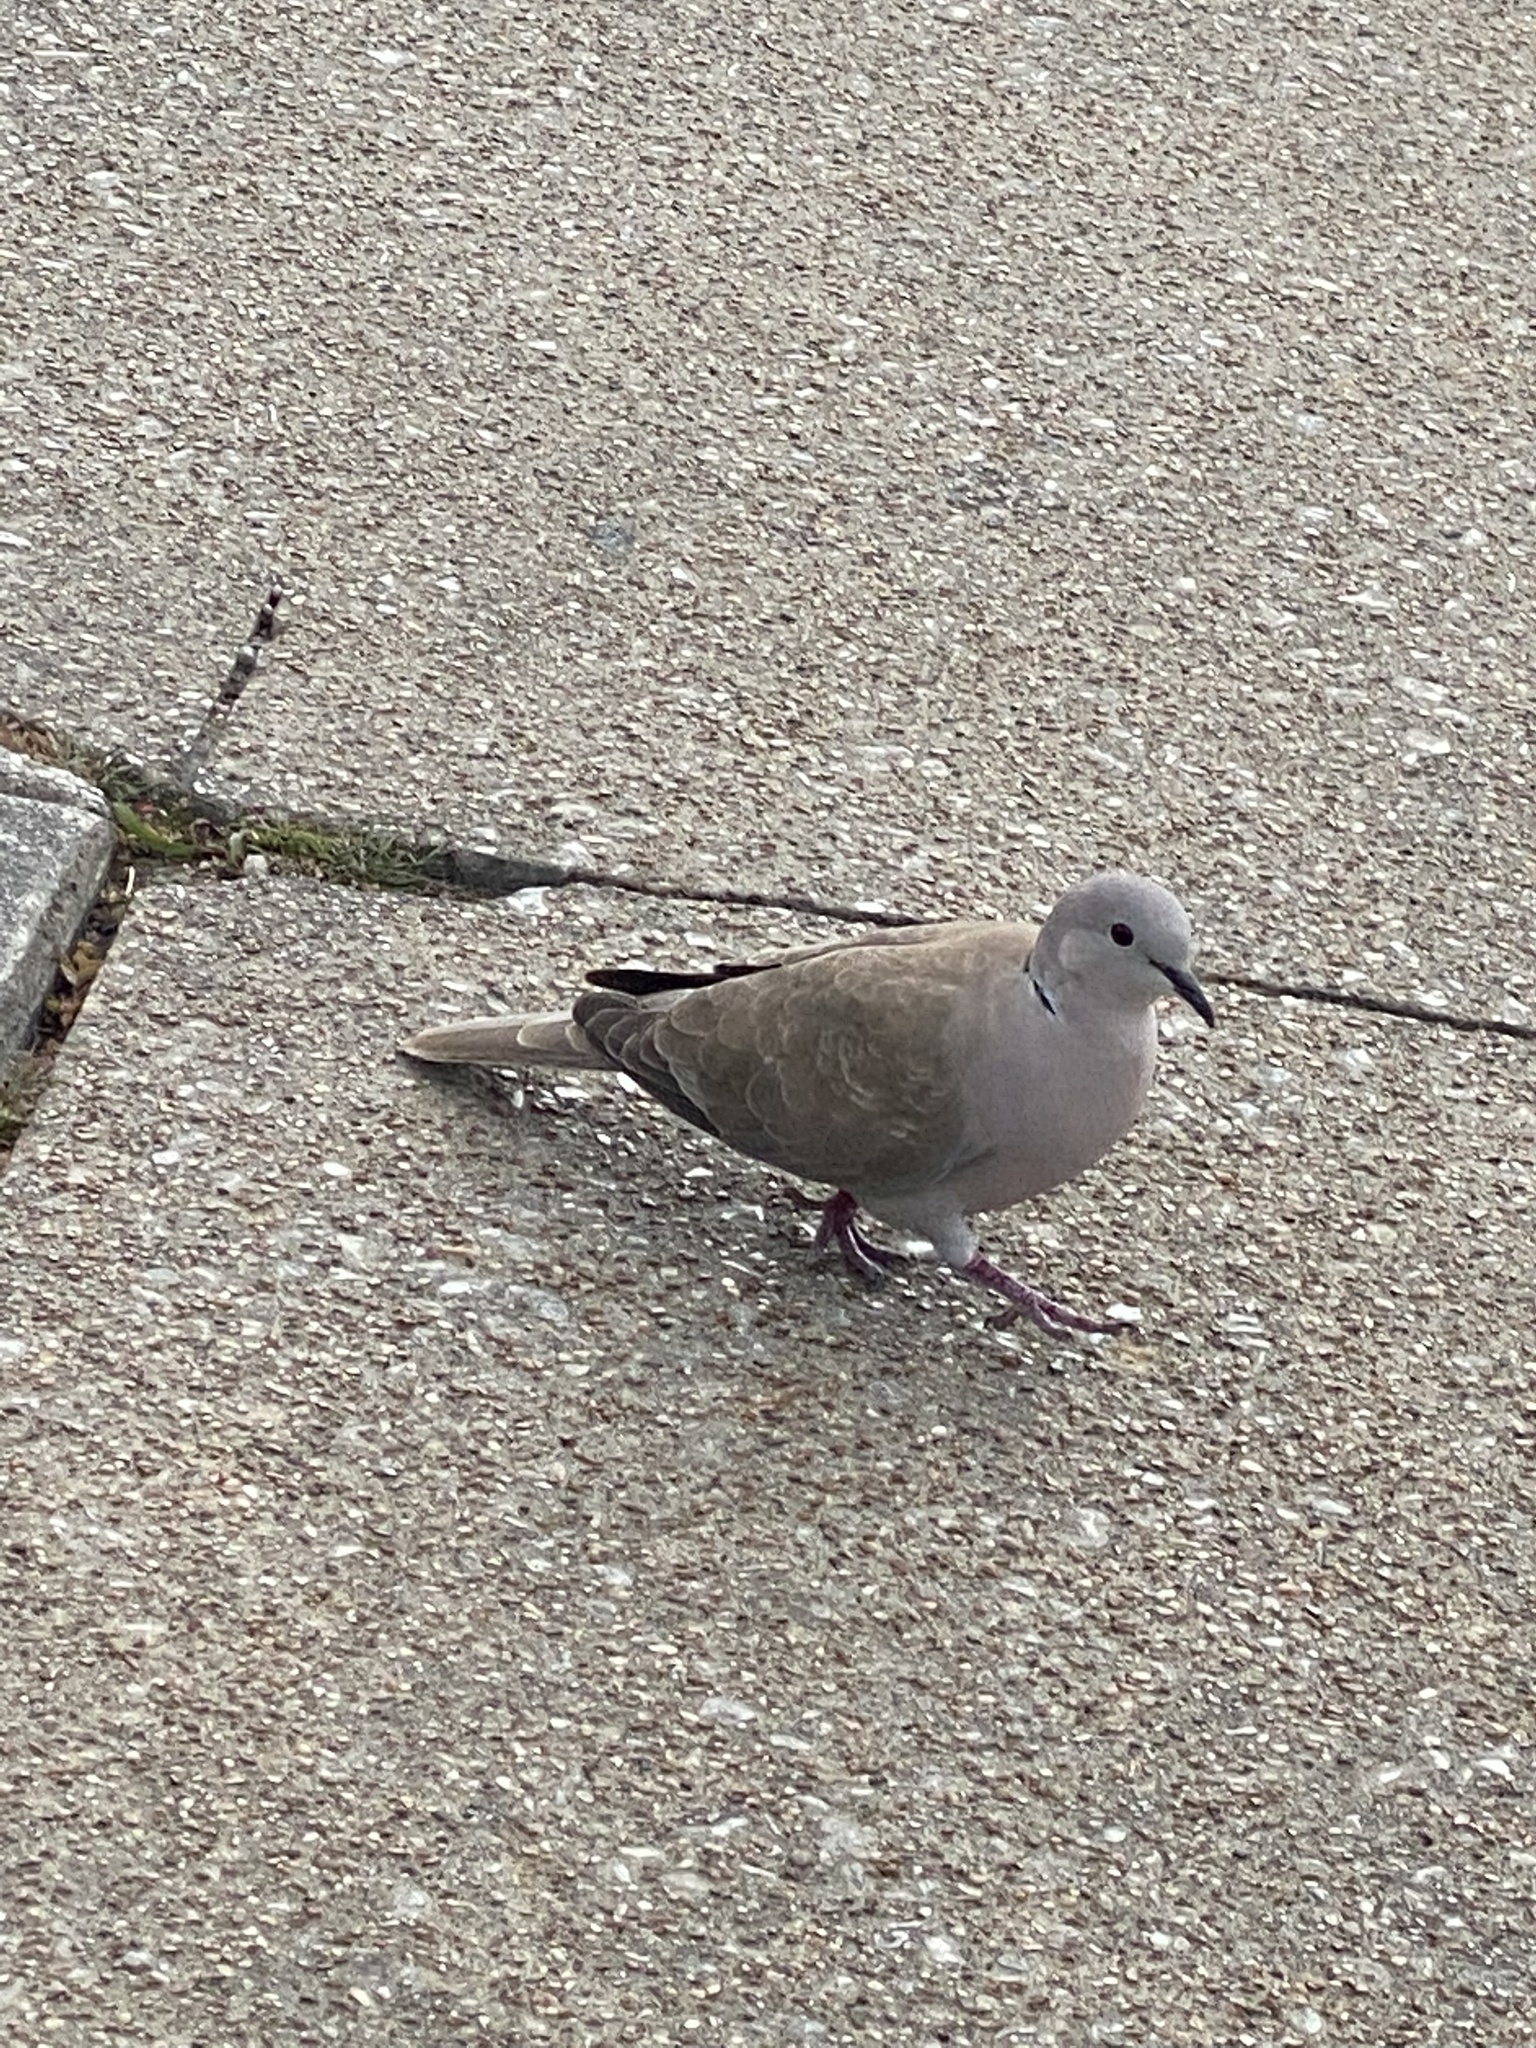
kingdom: Animalia
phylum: Chordata
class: Aves
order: Columbiformes
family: Columbidae
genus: Streptopelia
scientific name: Streptopelia decaocto
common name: Eurasian collared dove
